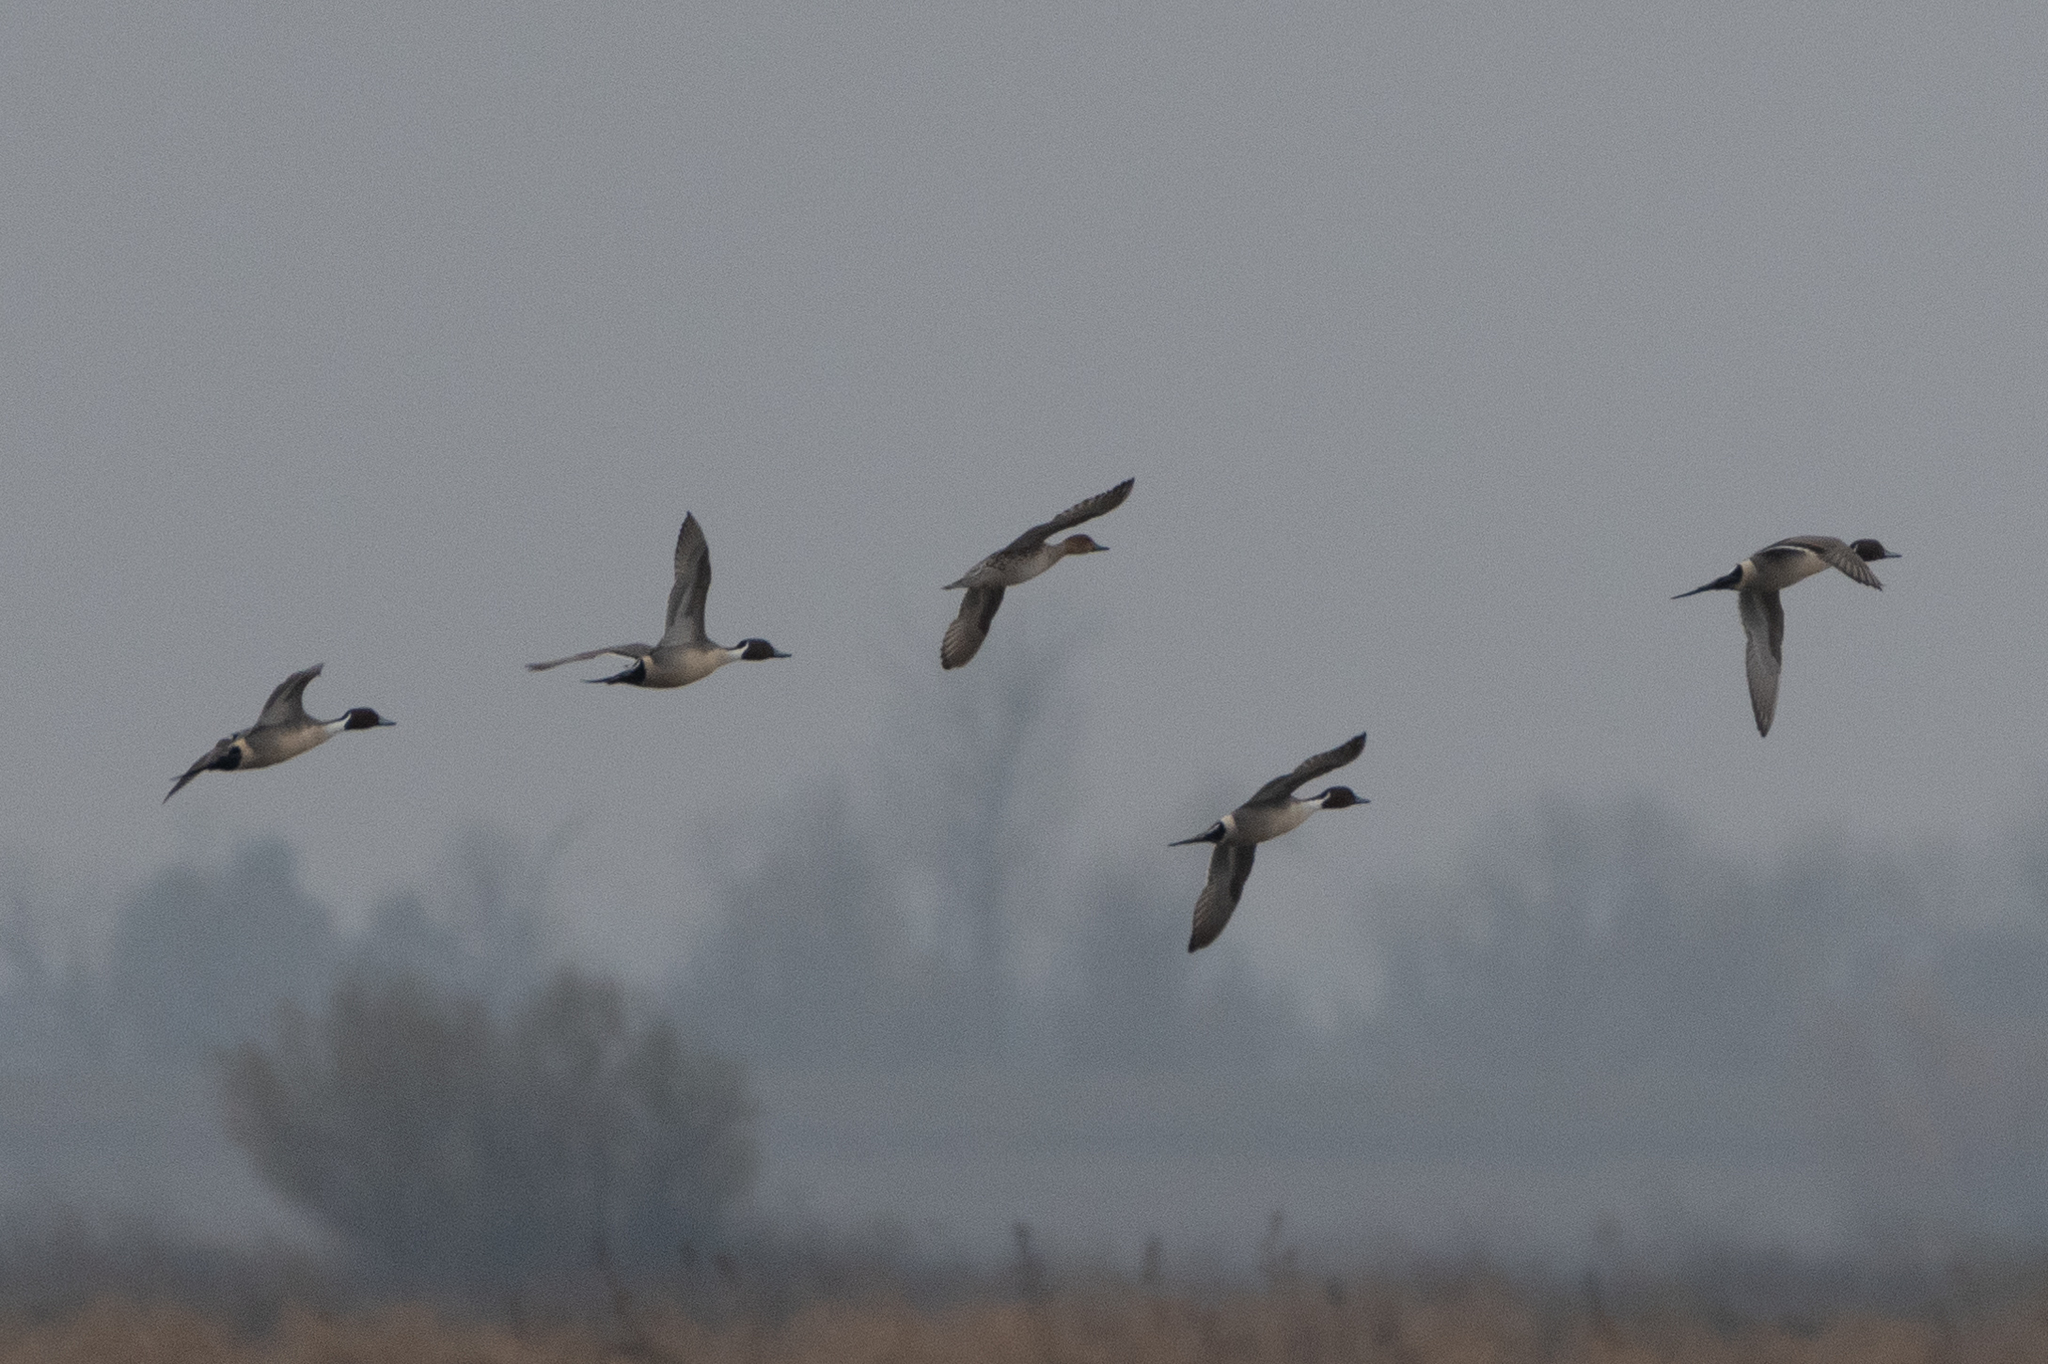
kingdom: Animalia
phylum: Chordata
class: Aves
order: Anseriformes
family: Anatidae
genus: Anas
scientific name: Anas acuta
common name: Northern pintail
